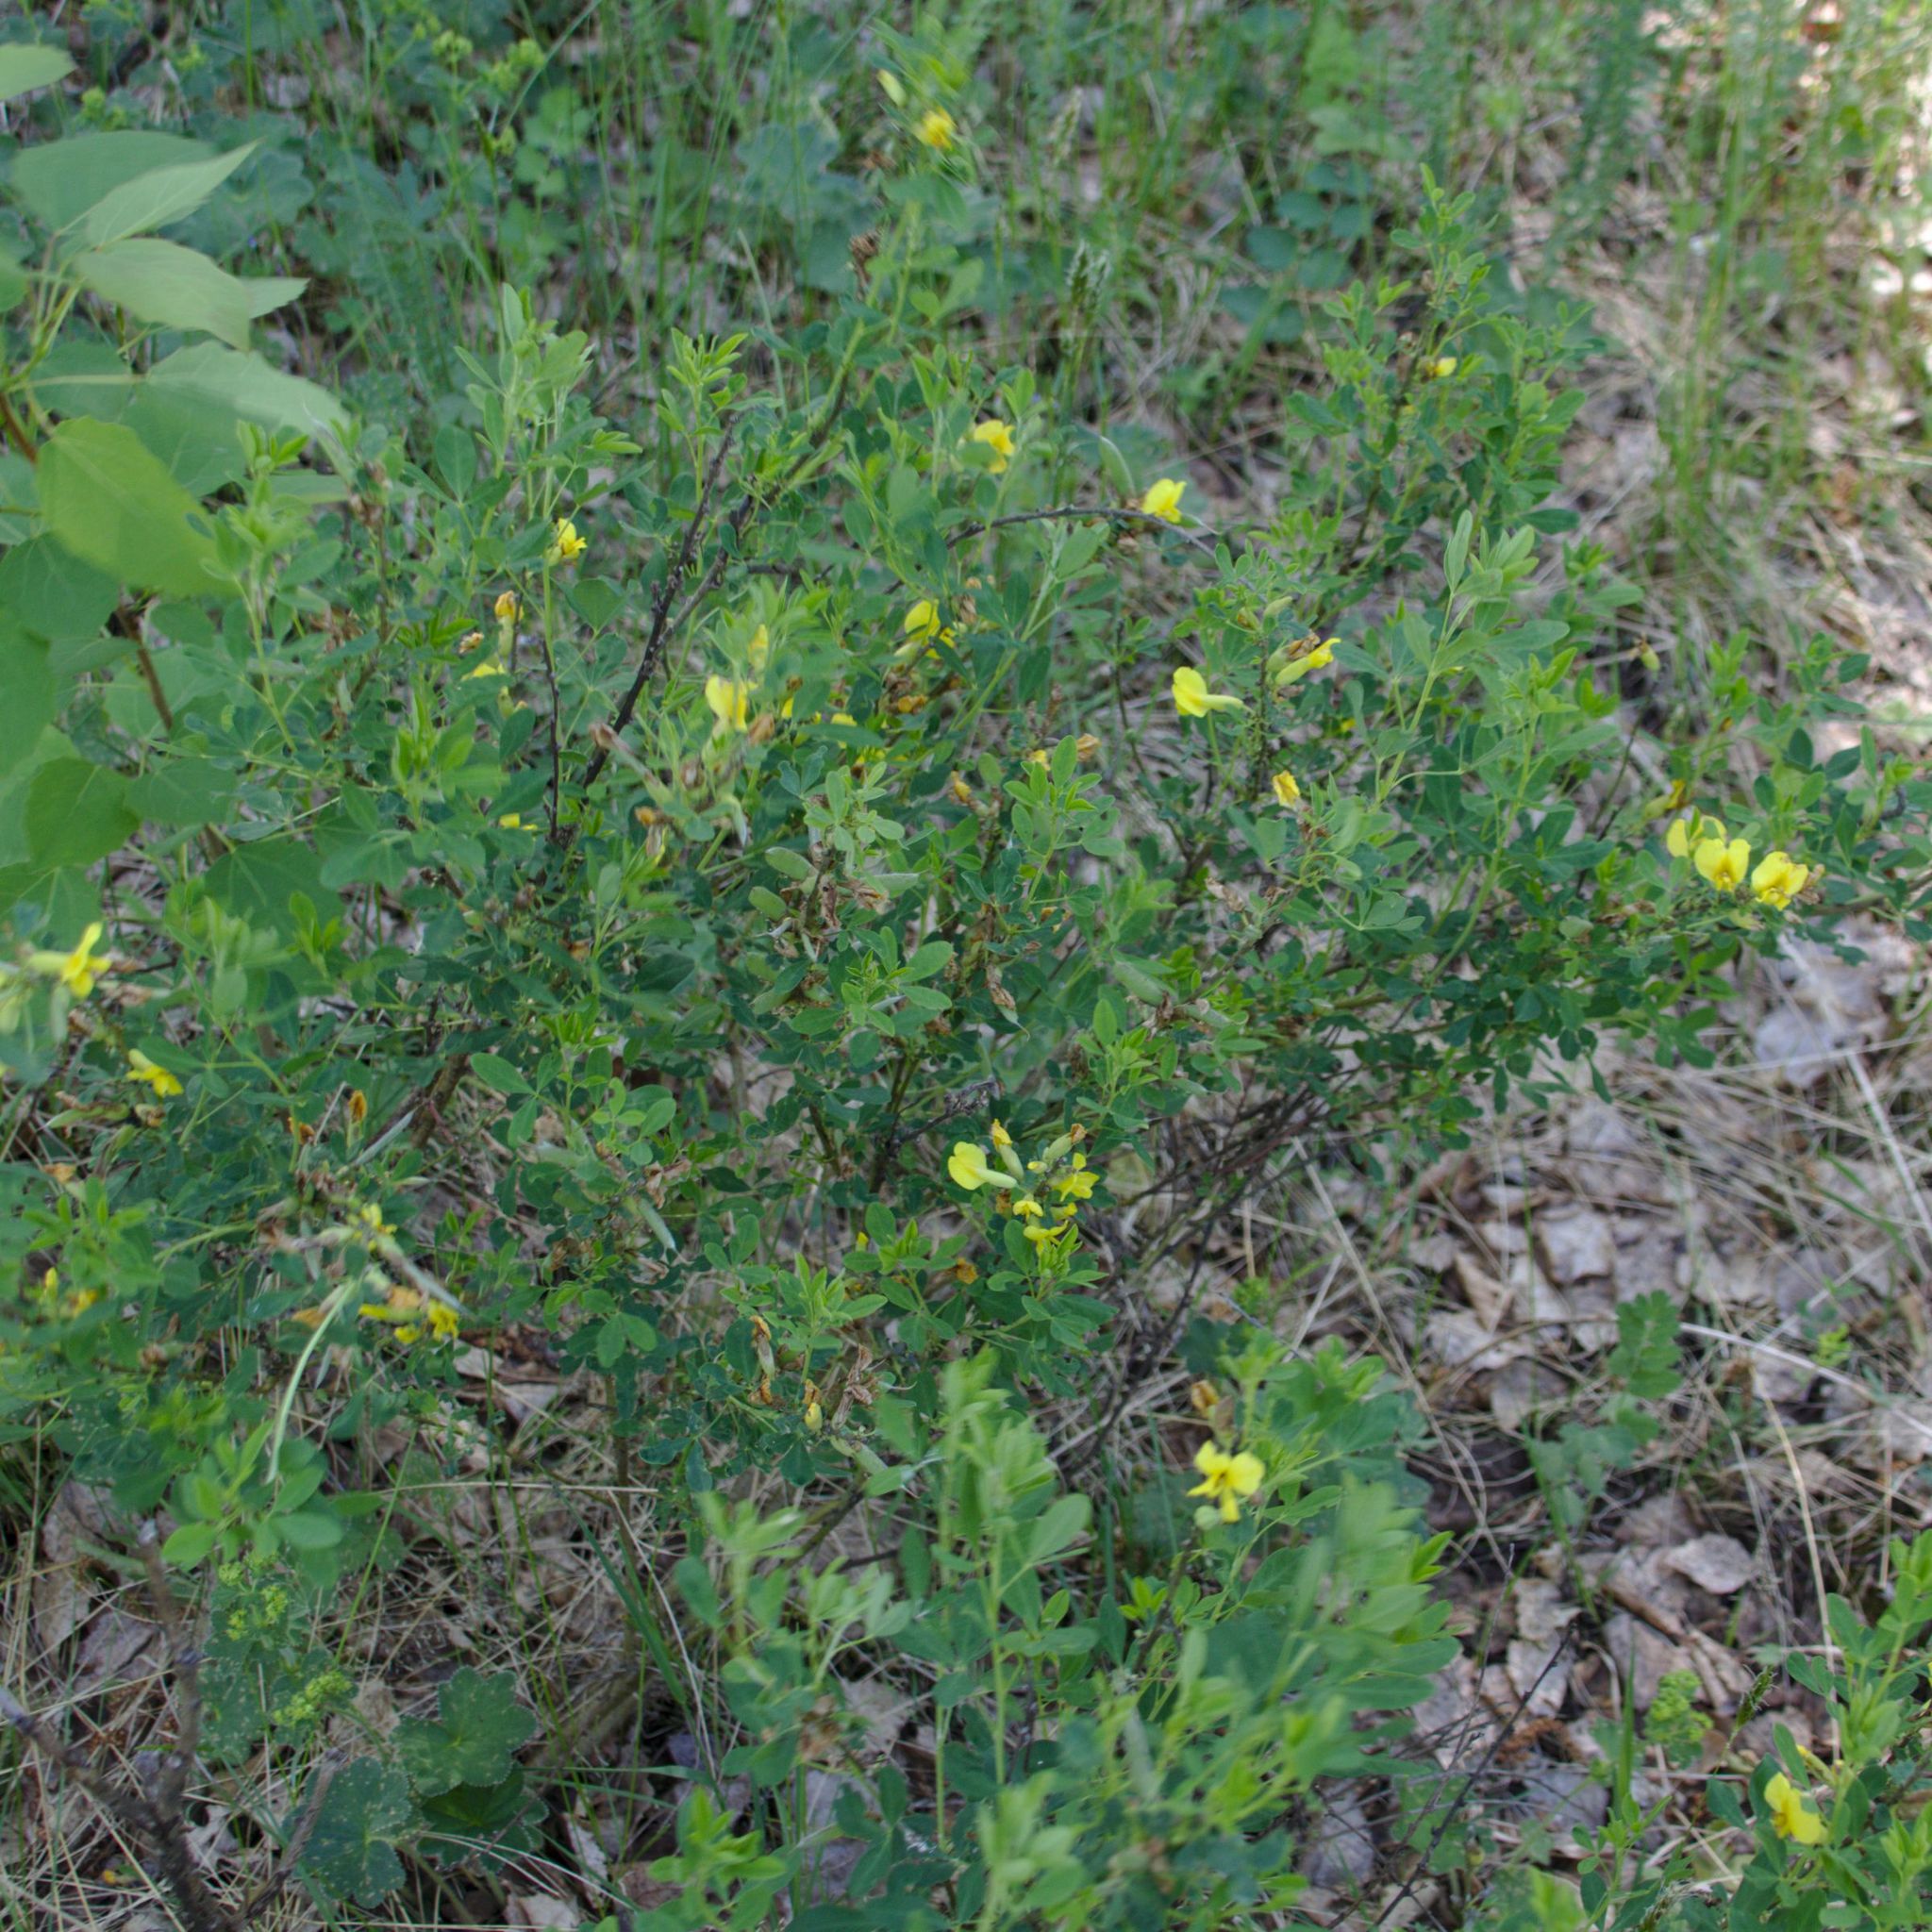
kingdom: Plantae
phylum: Tracheophyta
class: Magnoliopsida
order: Fabales
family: Fabaceae
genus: Chamaecytisus
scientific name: Chamaecytisus ruthenicus
